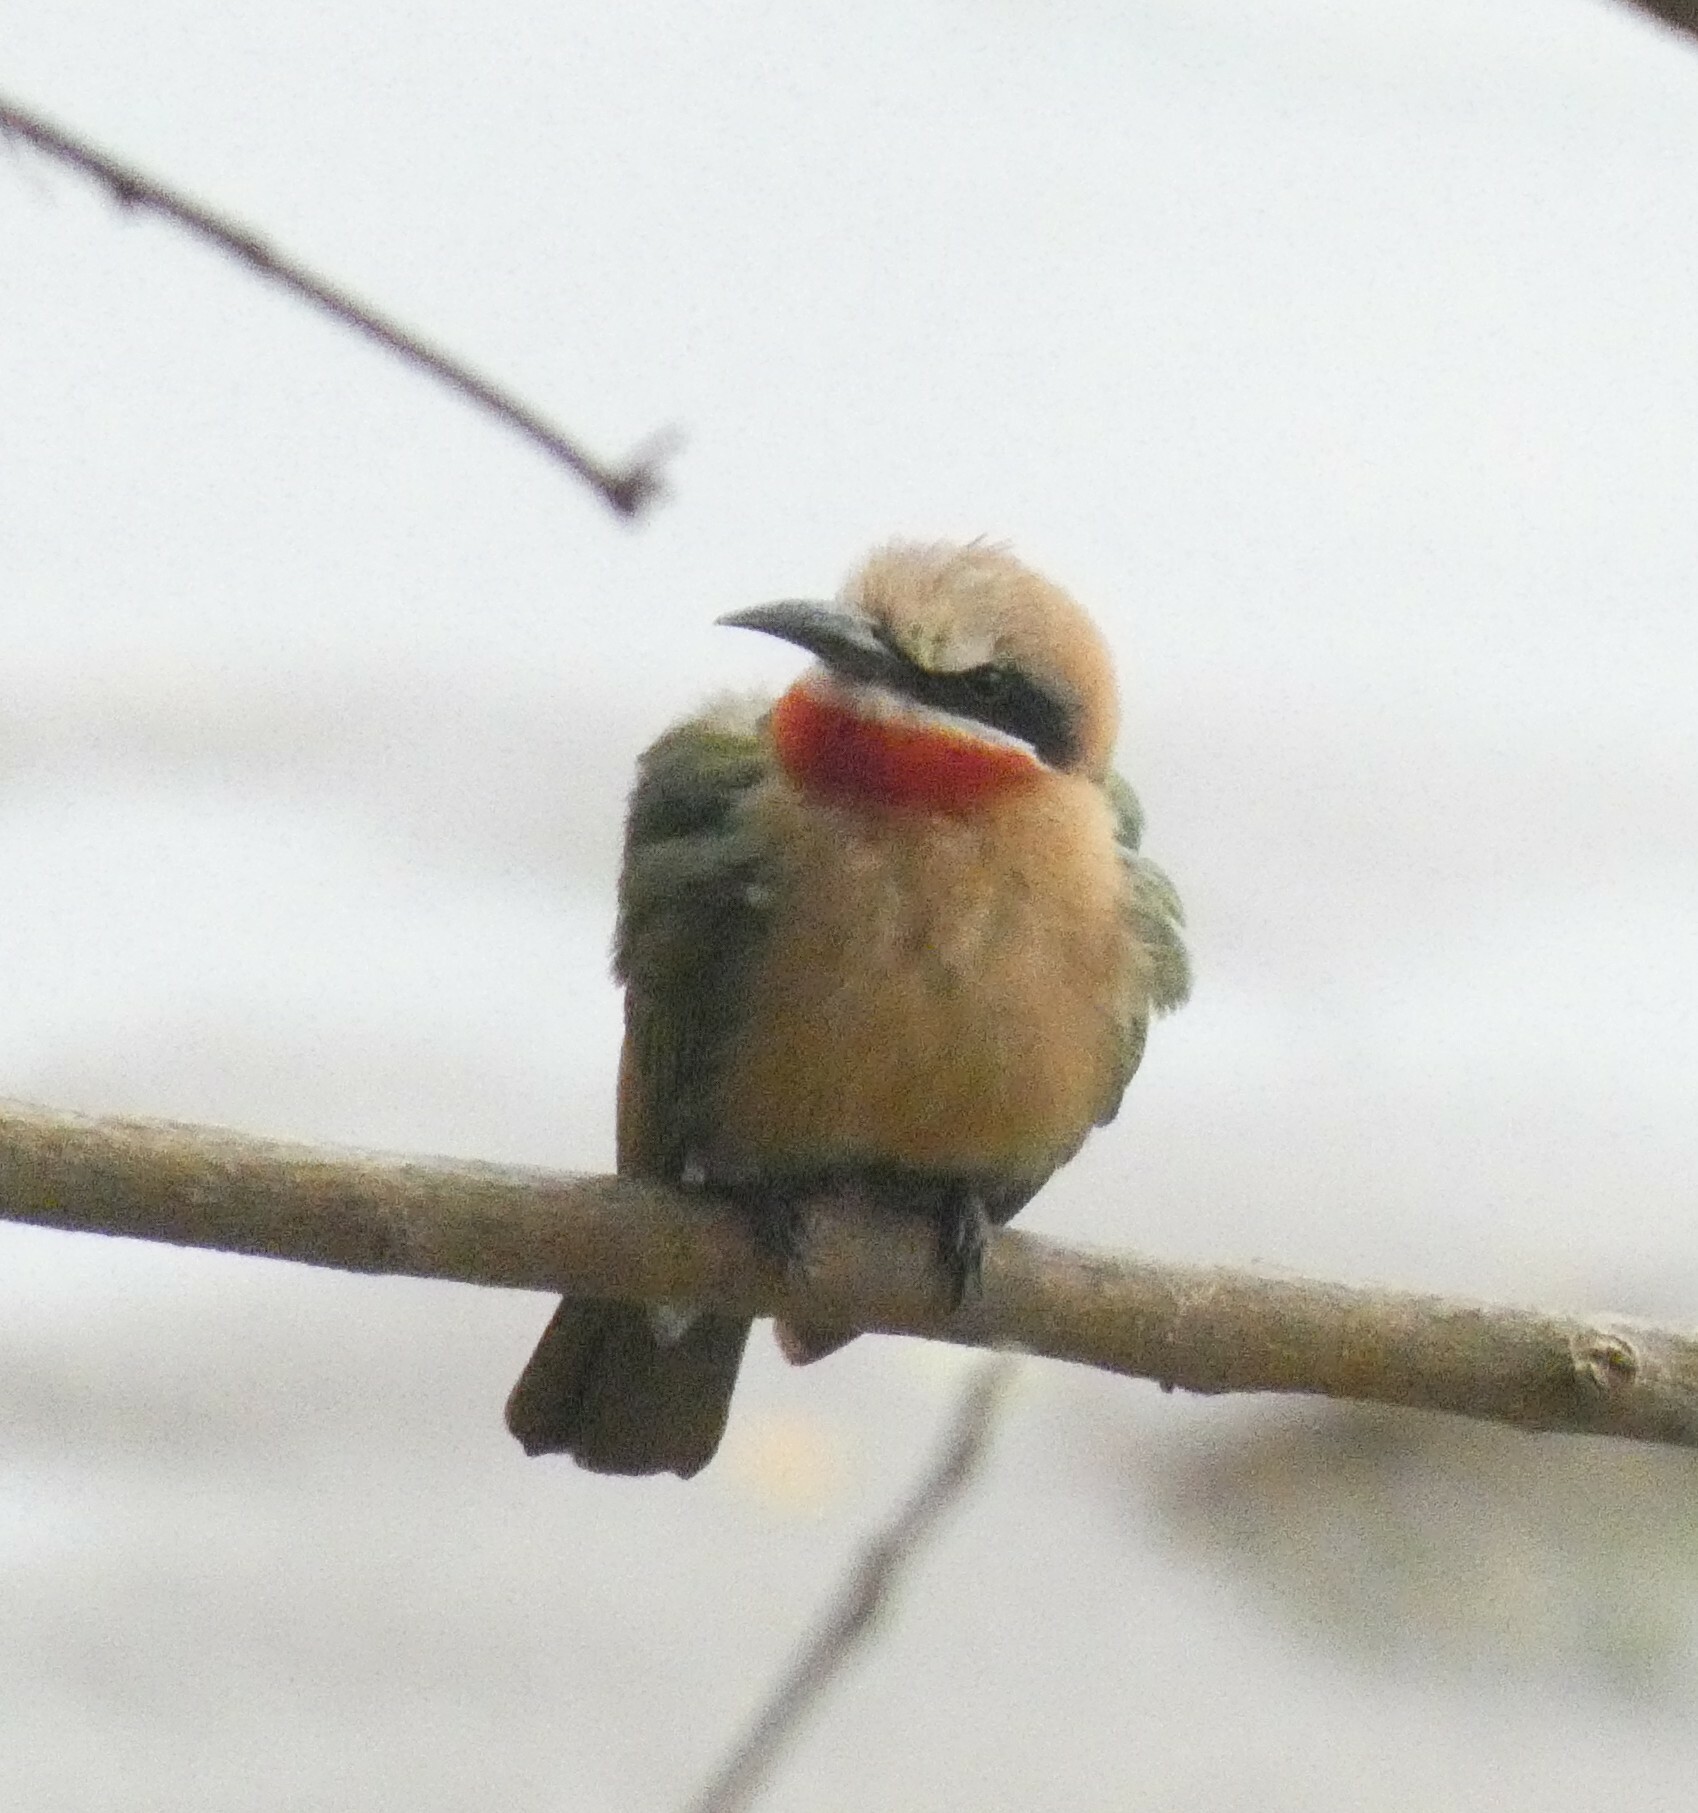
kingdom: Animalia
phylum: Chordata
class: Aves
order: Coraciiformes
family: Meropidae
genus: Merops
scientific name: Merops bullockoides
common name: White-fronted bee-eater
